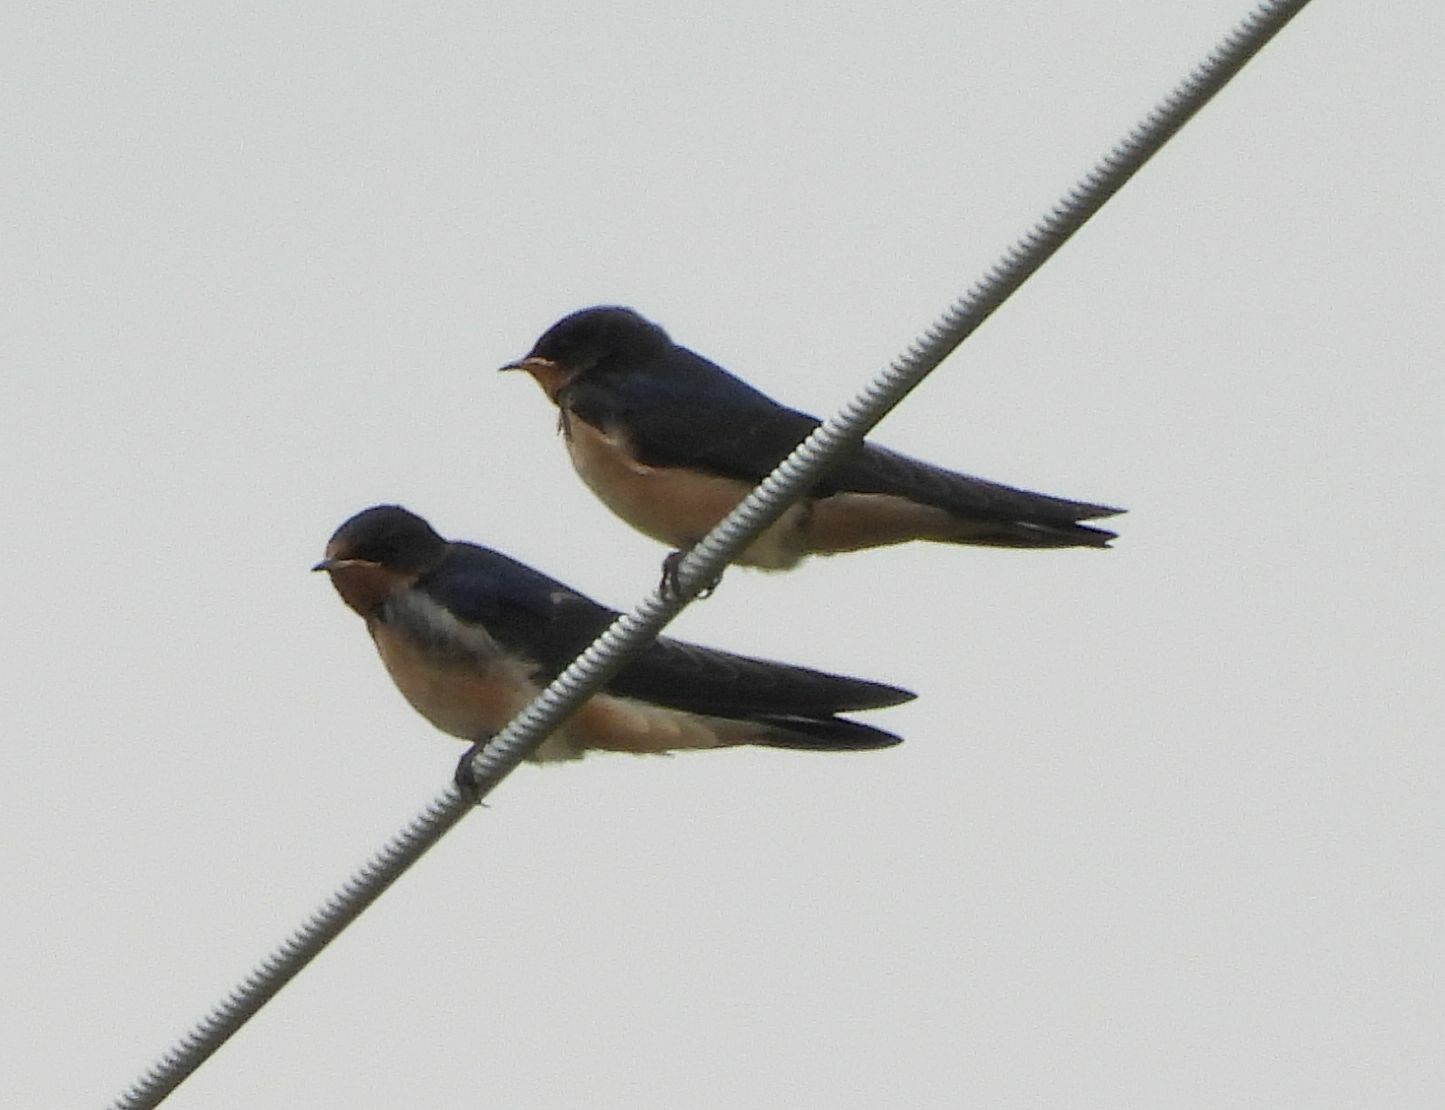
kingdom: Animalia
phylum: Chordata
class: Aves
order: Passeriformes
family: Hirundinidae
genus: Hirundo
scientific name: Hirundo rustica
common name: Barn swallow
